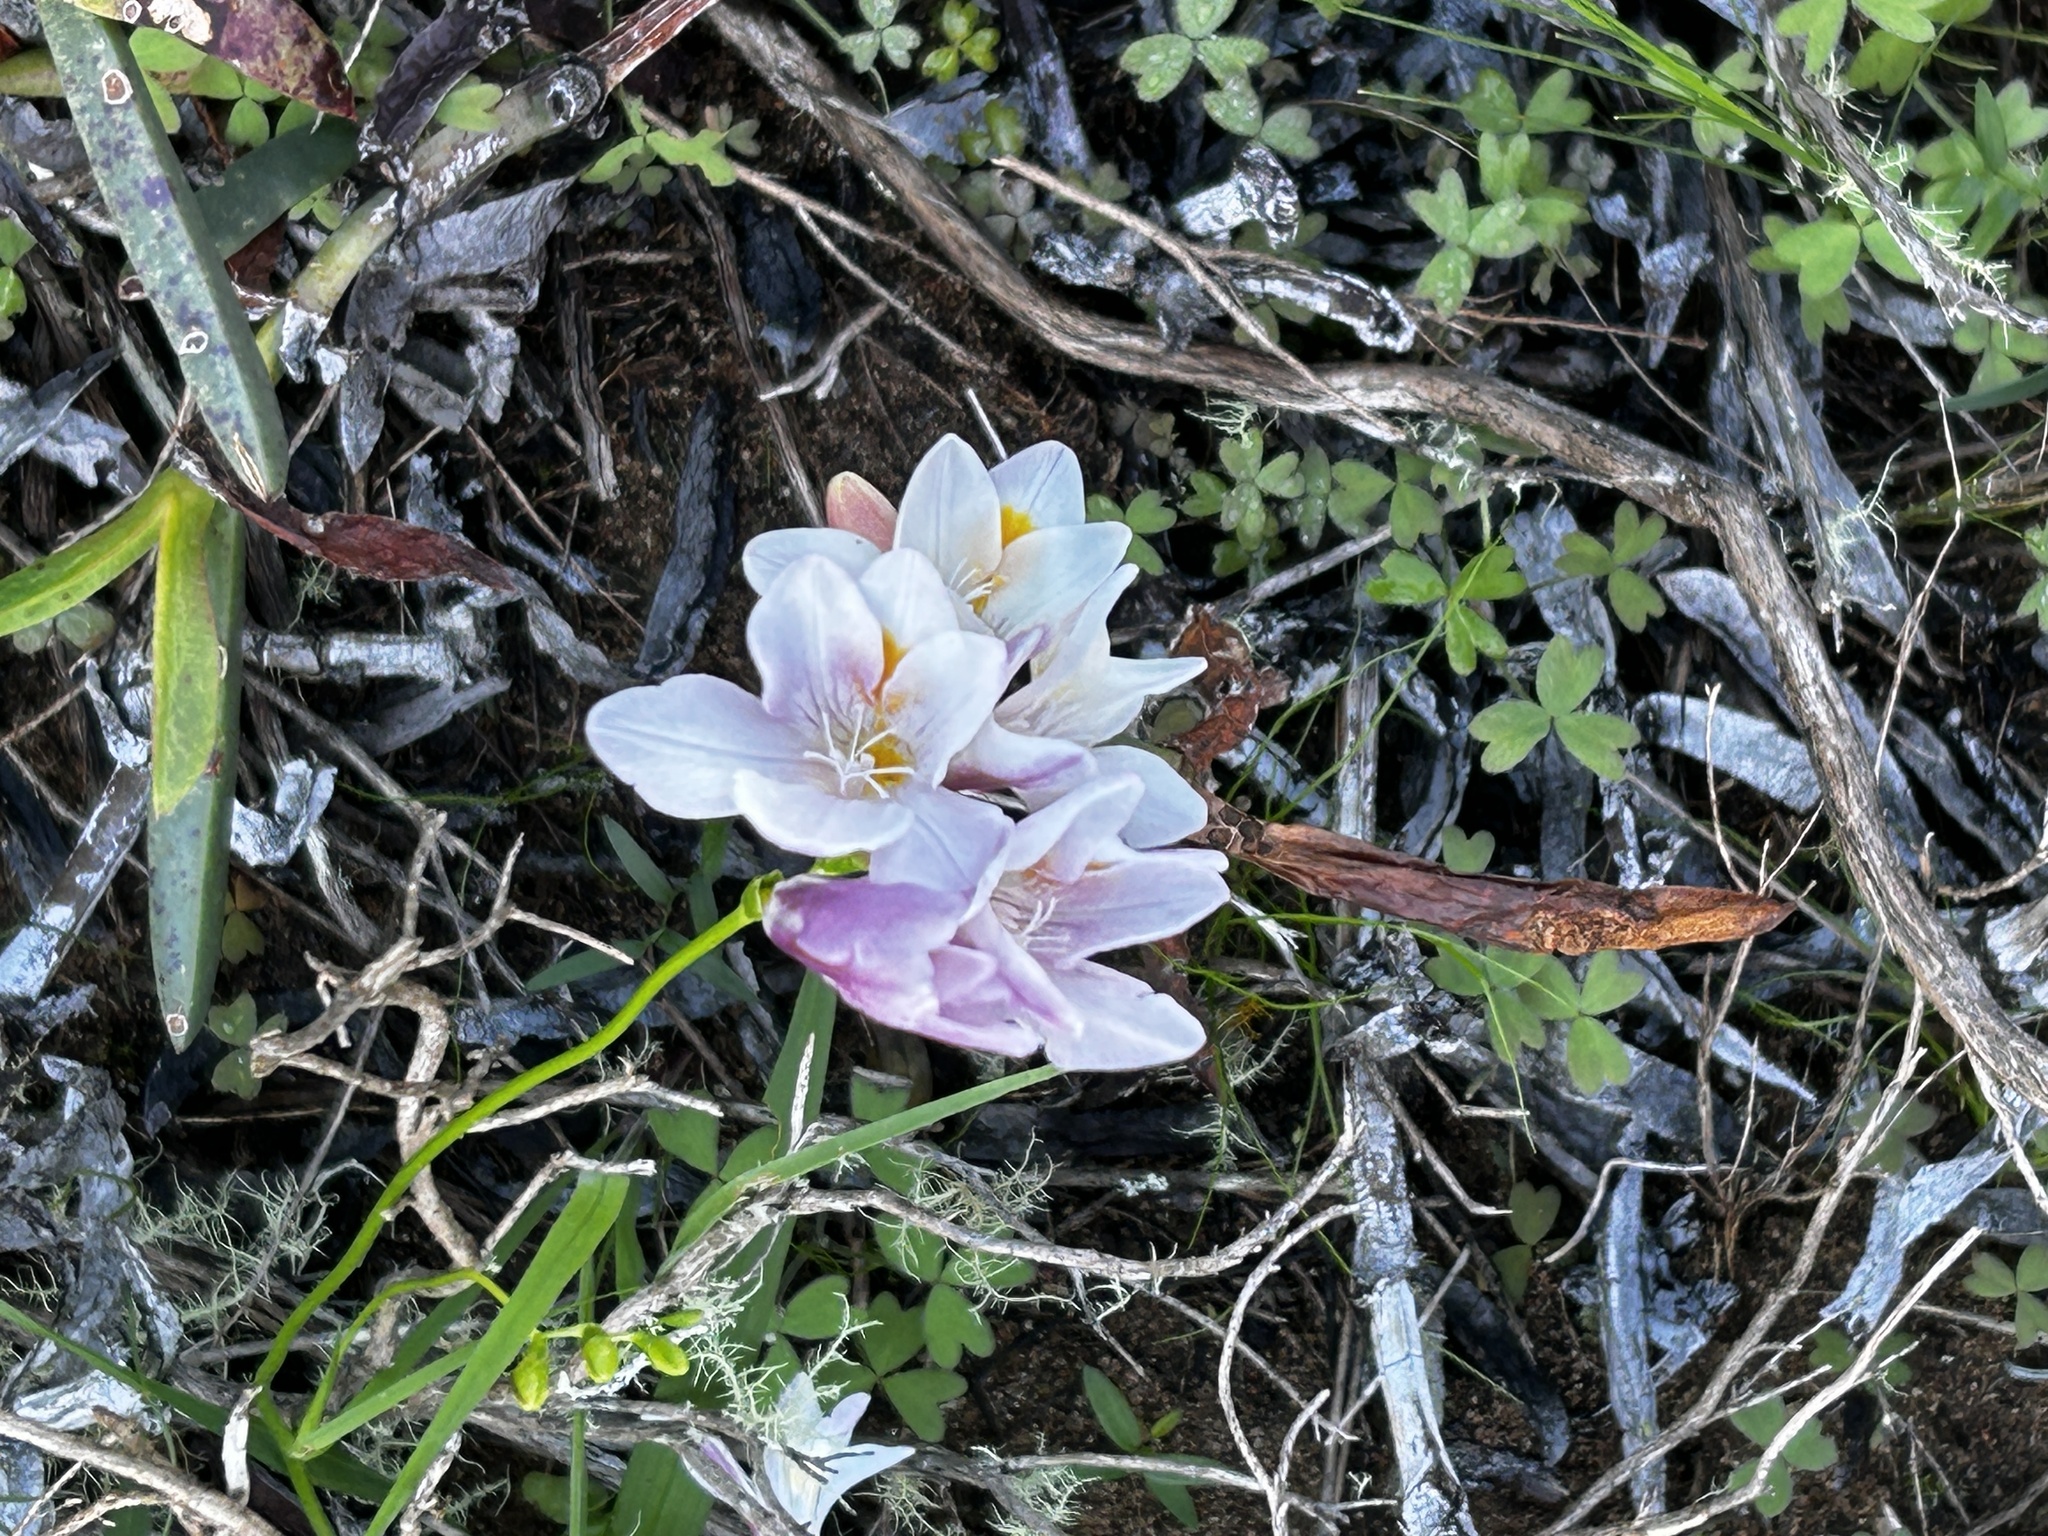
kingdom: Plantae
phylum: Tracheophyta
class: Liliopsida
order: Asparagales
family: Iridaceae
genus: Freesia
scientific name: Freesia leichtlinii
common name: Freesia
